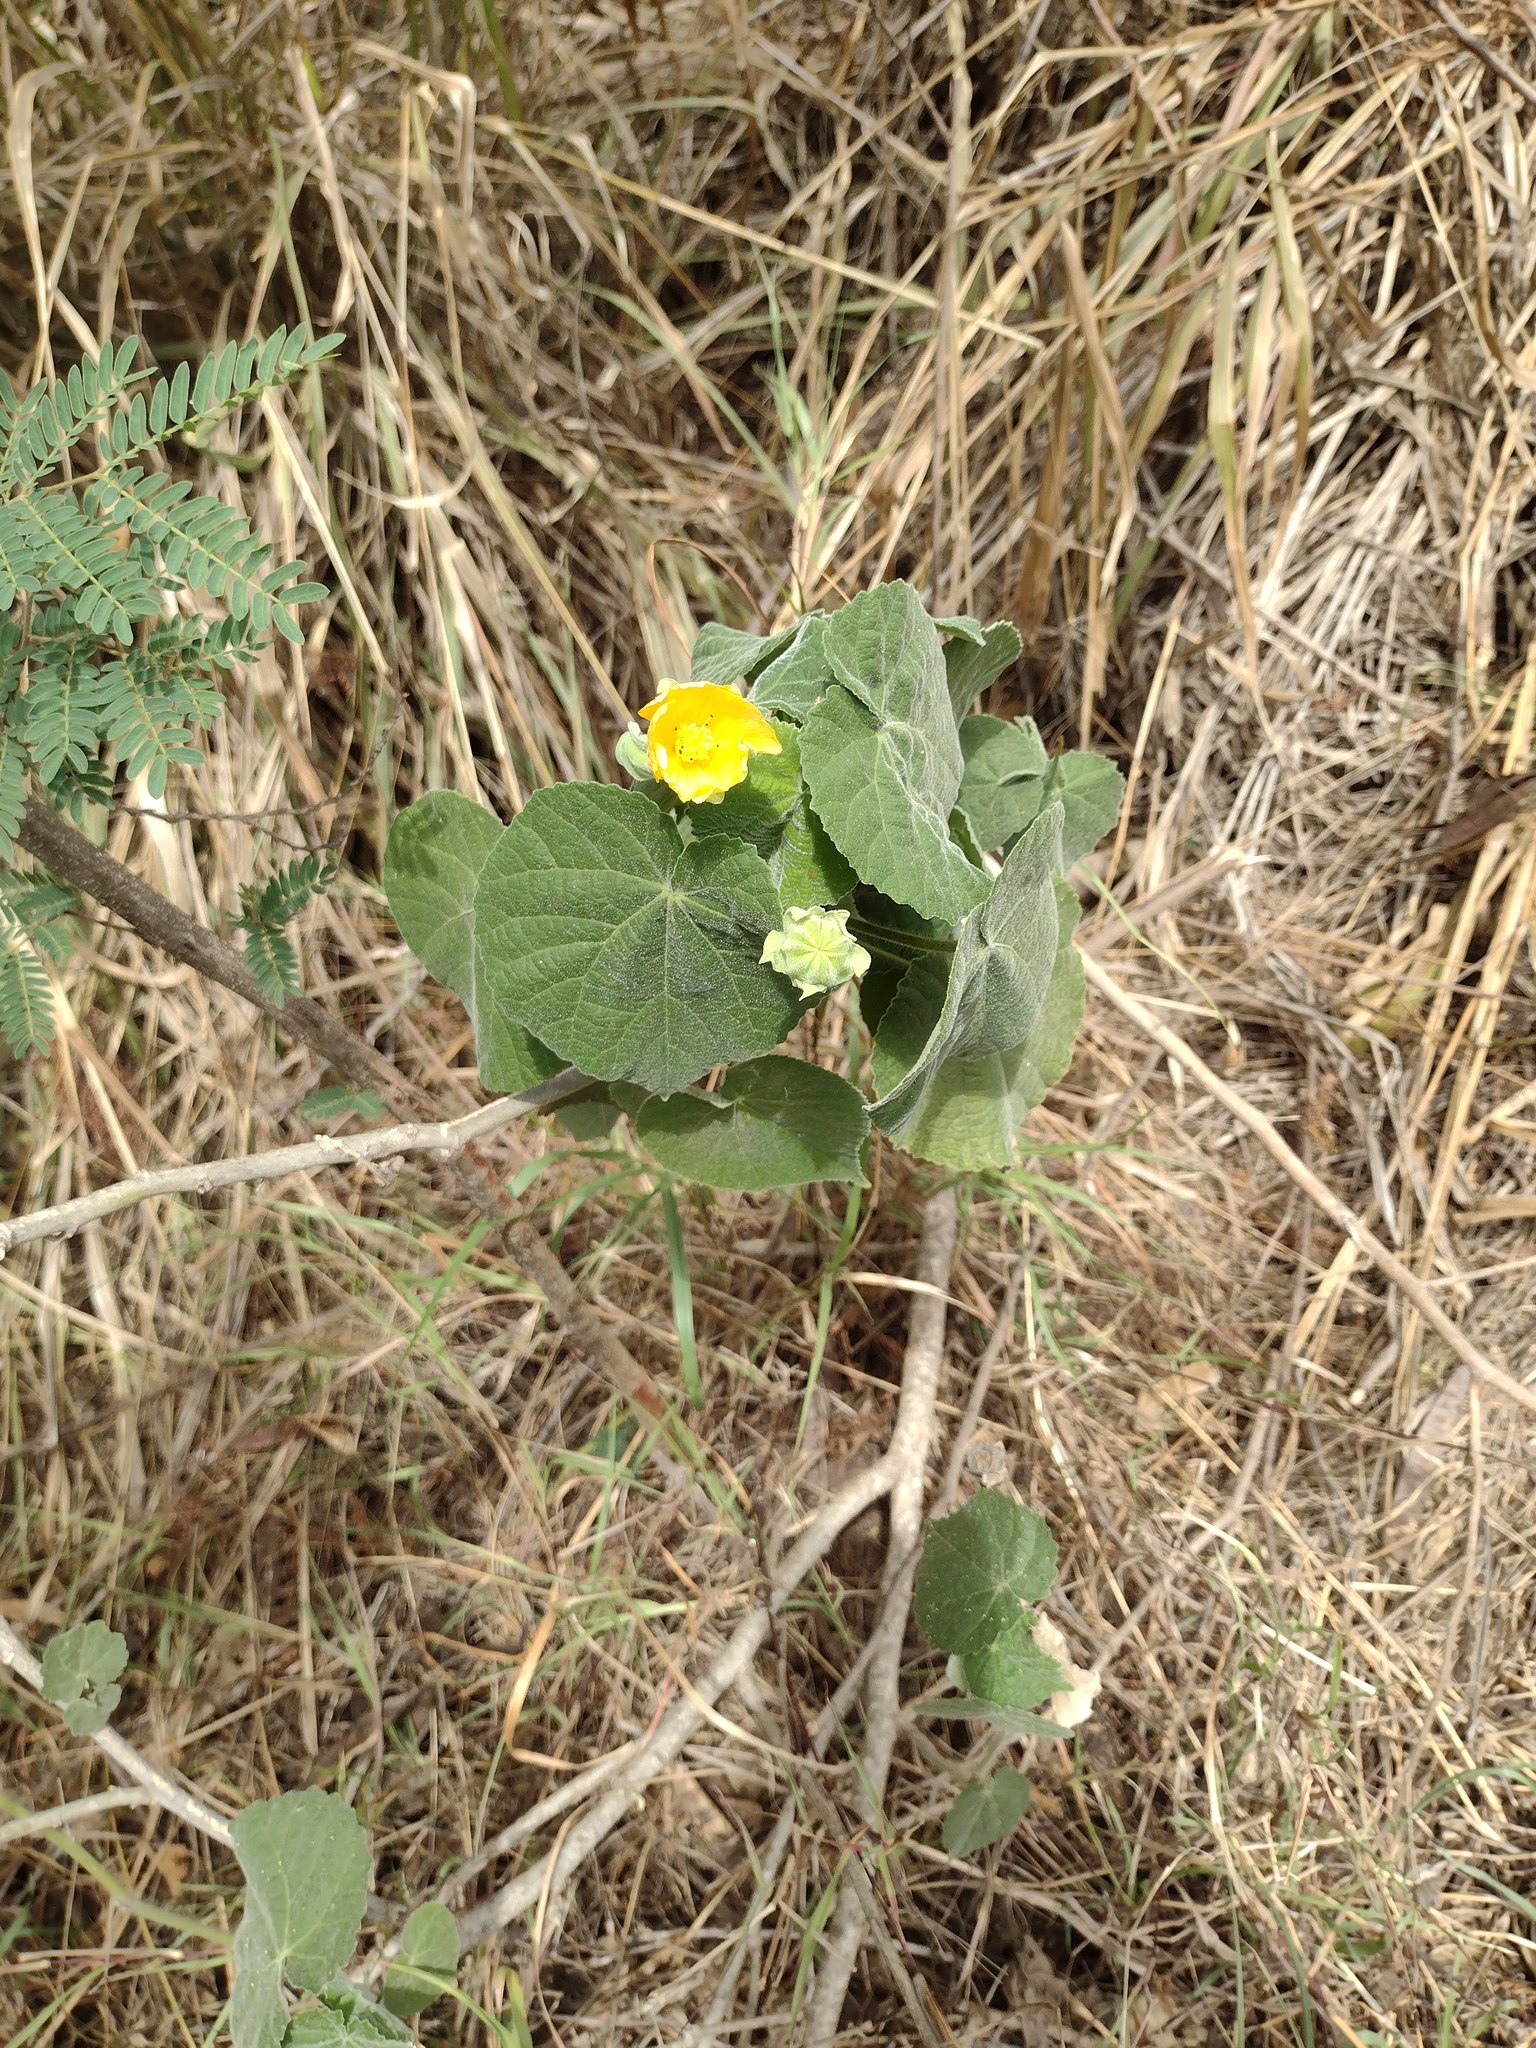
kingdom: Plantae
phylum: Tracheophyta
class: Magnoliopsida
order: Malvales
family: Malvaceae
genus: Abutilon
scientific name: Abutilon grandifolium
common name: Hairy abutilon
